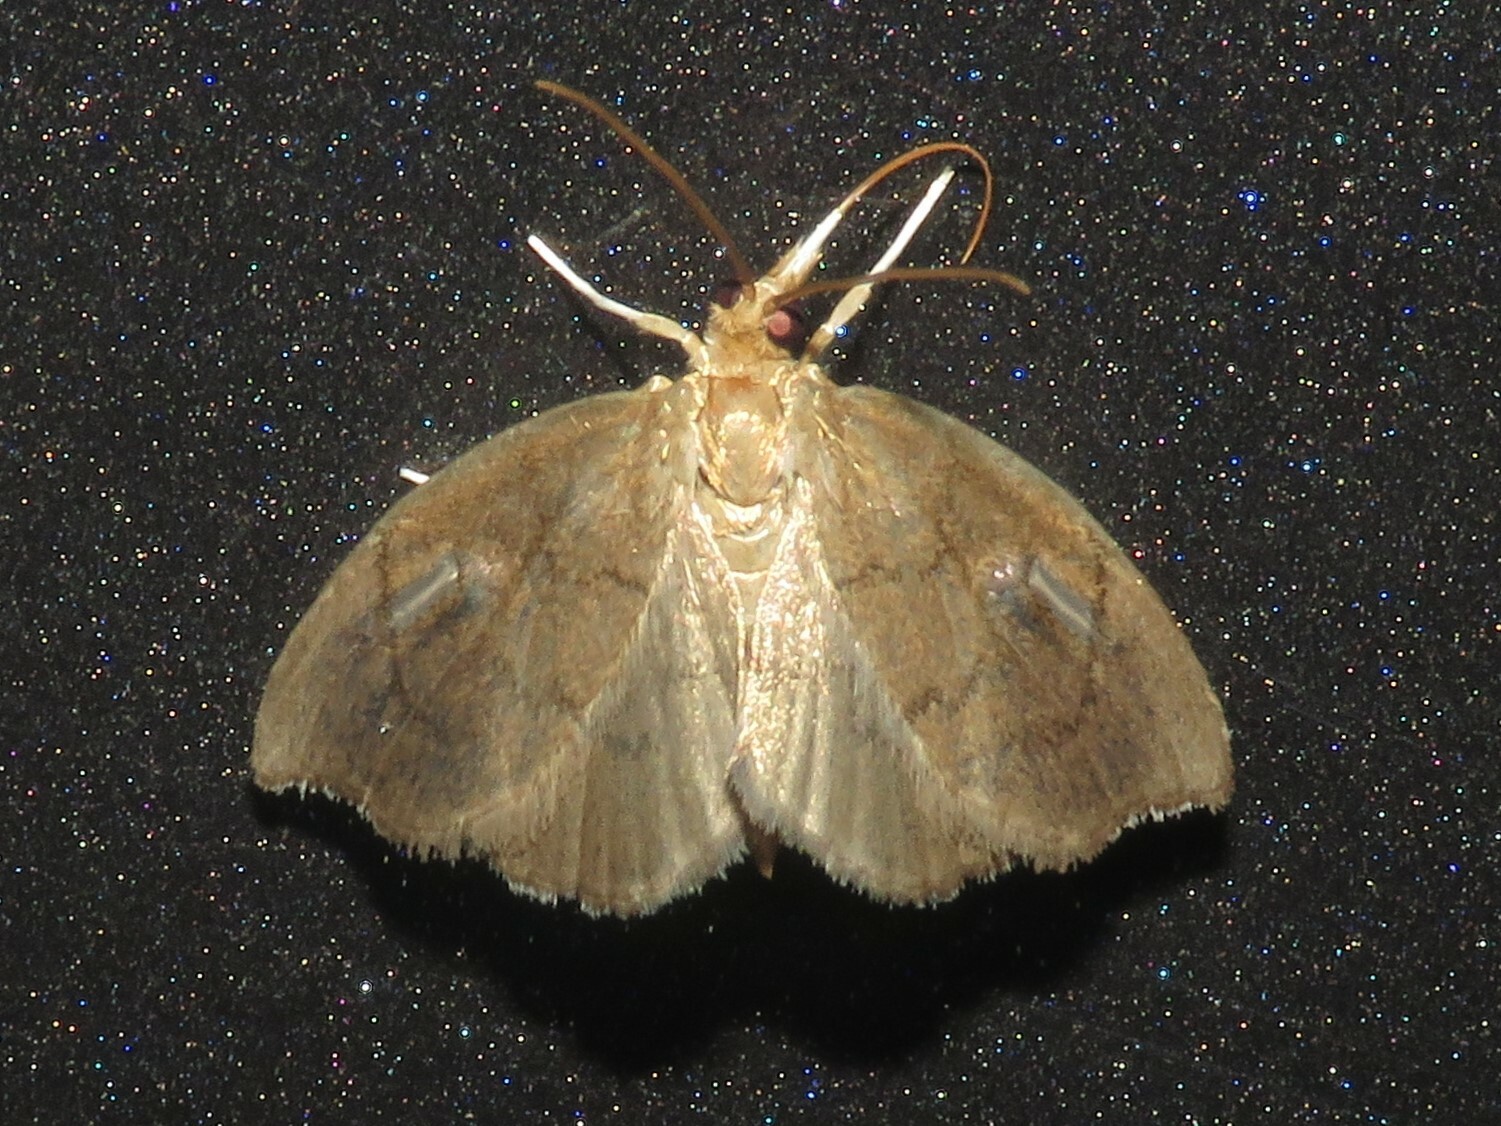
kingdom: Animalia
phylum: Arthropoda
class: Insecta
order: Lepidoptera
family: Crambidae
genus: Perispasta
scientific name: Perispasta caeculalis
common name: Titian peale's moth
